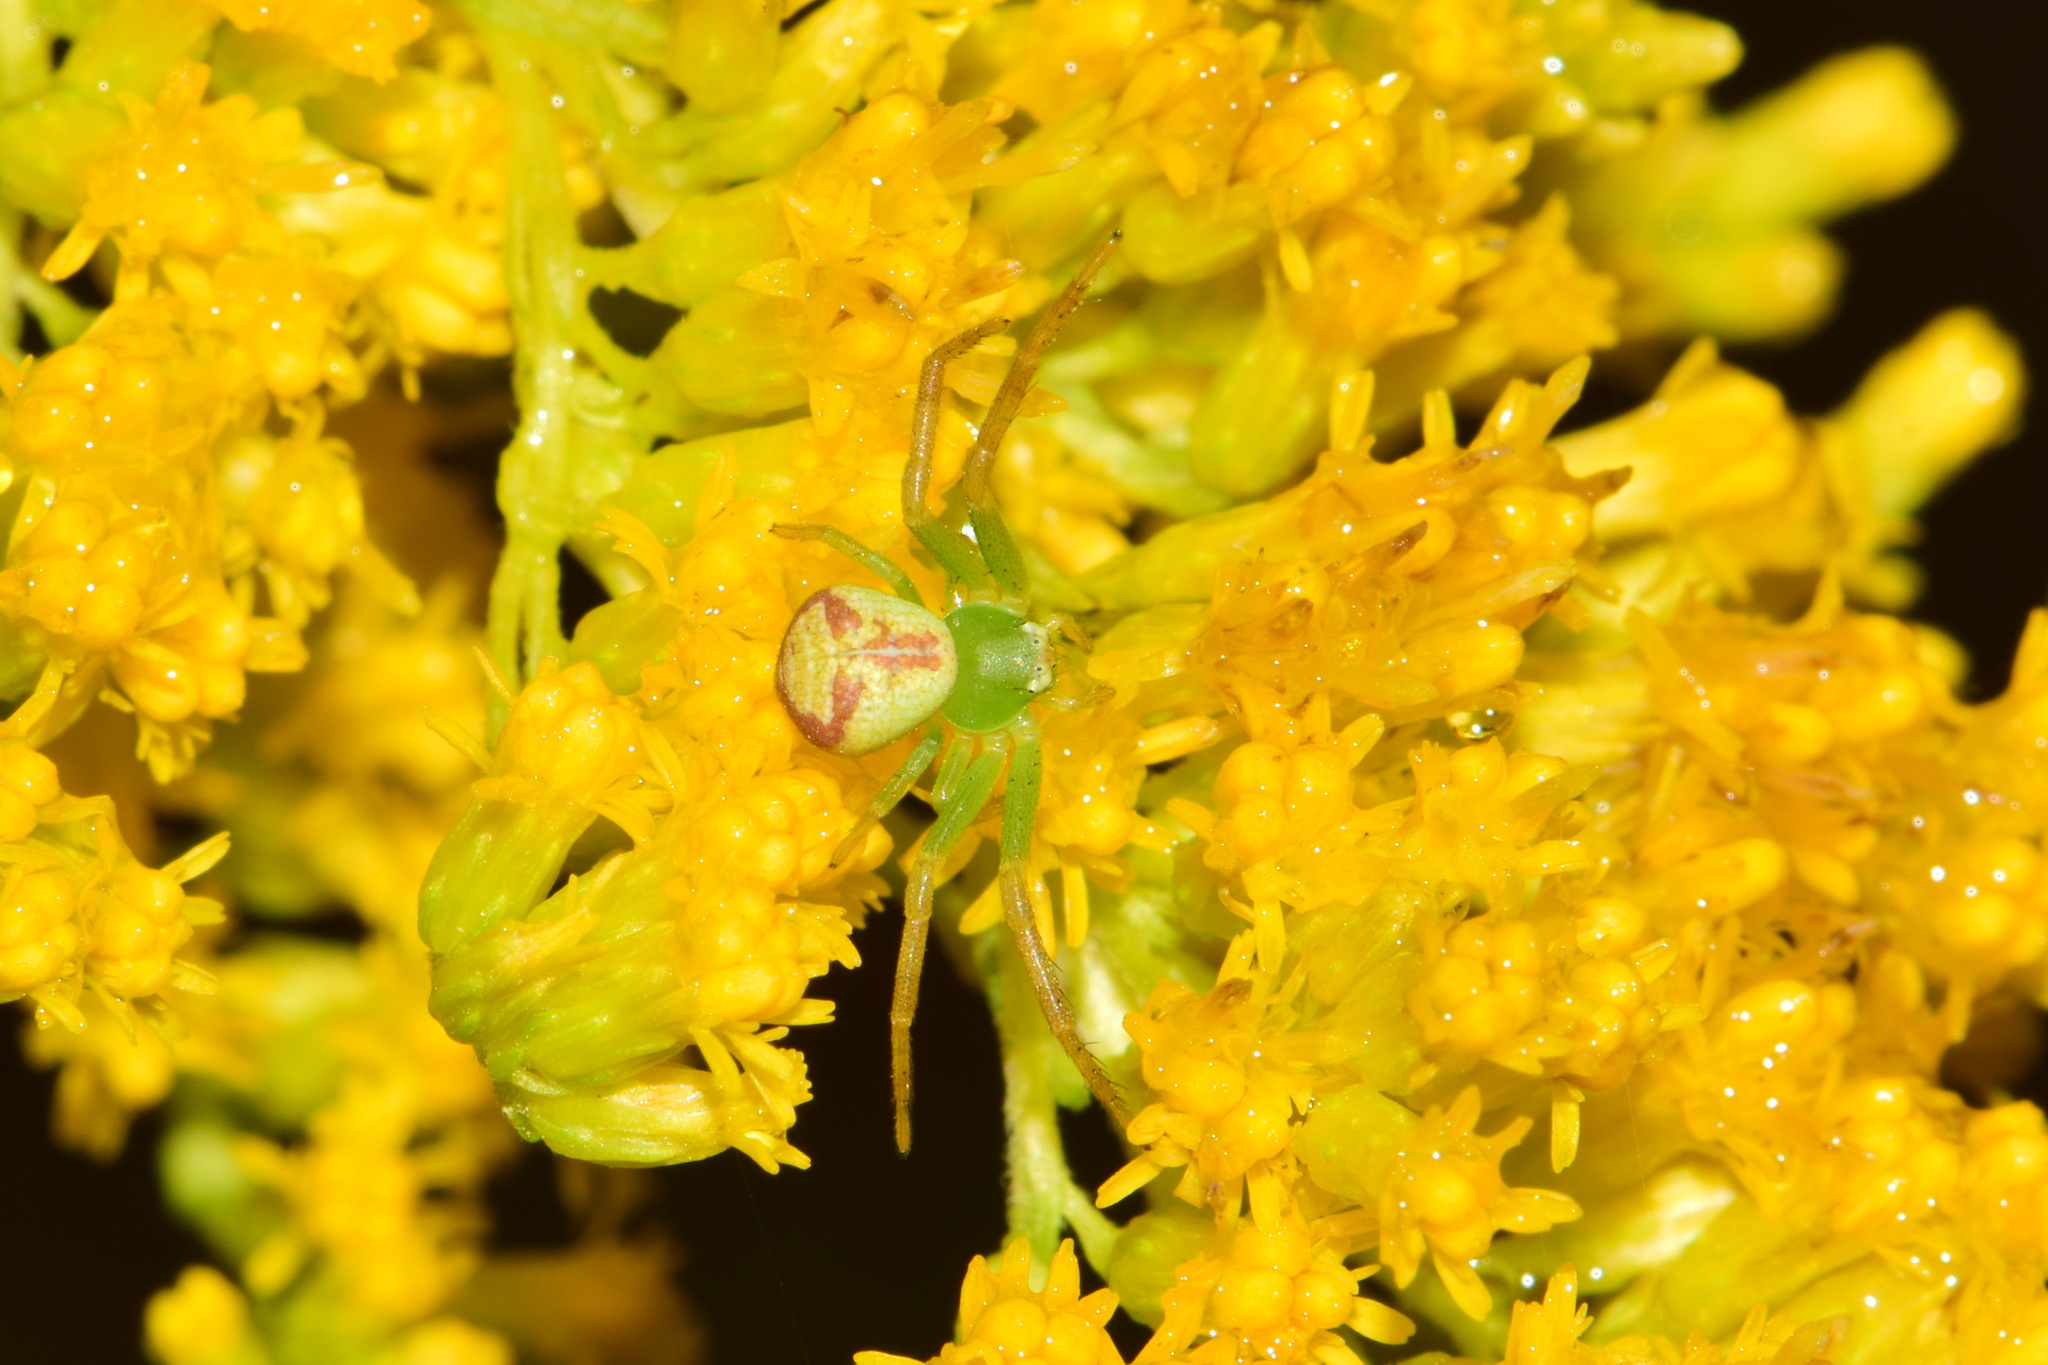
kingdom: Animalia
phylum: Arthropoda
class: Arachnida
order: Araneae
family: Thomisidae
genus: Ebrechtella
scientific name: Ebrechtella tricuspidata
